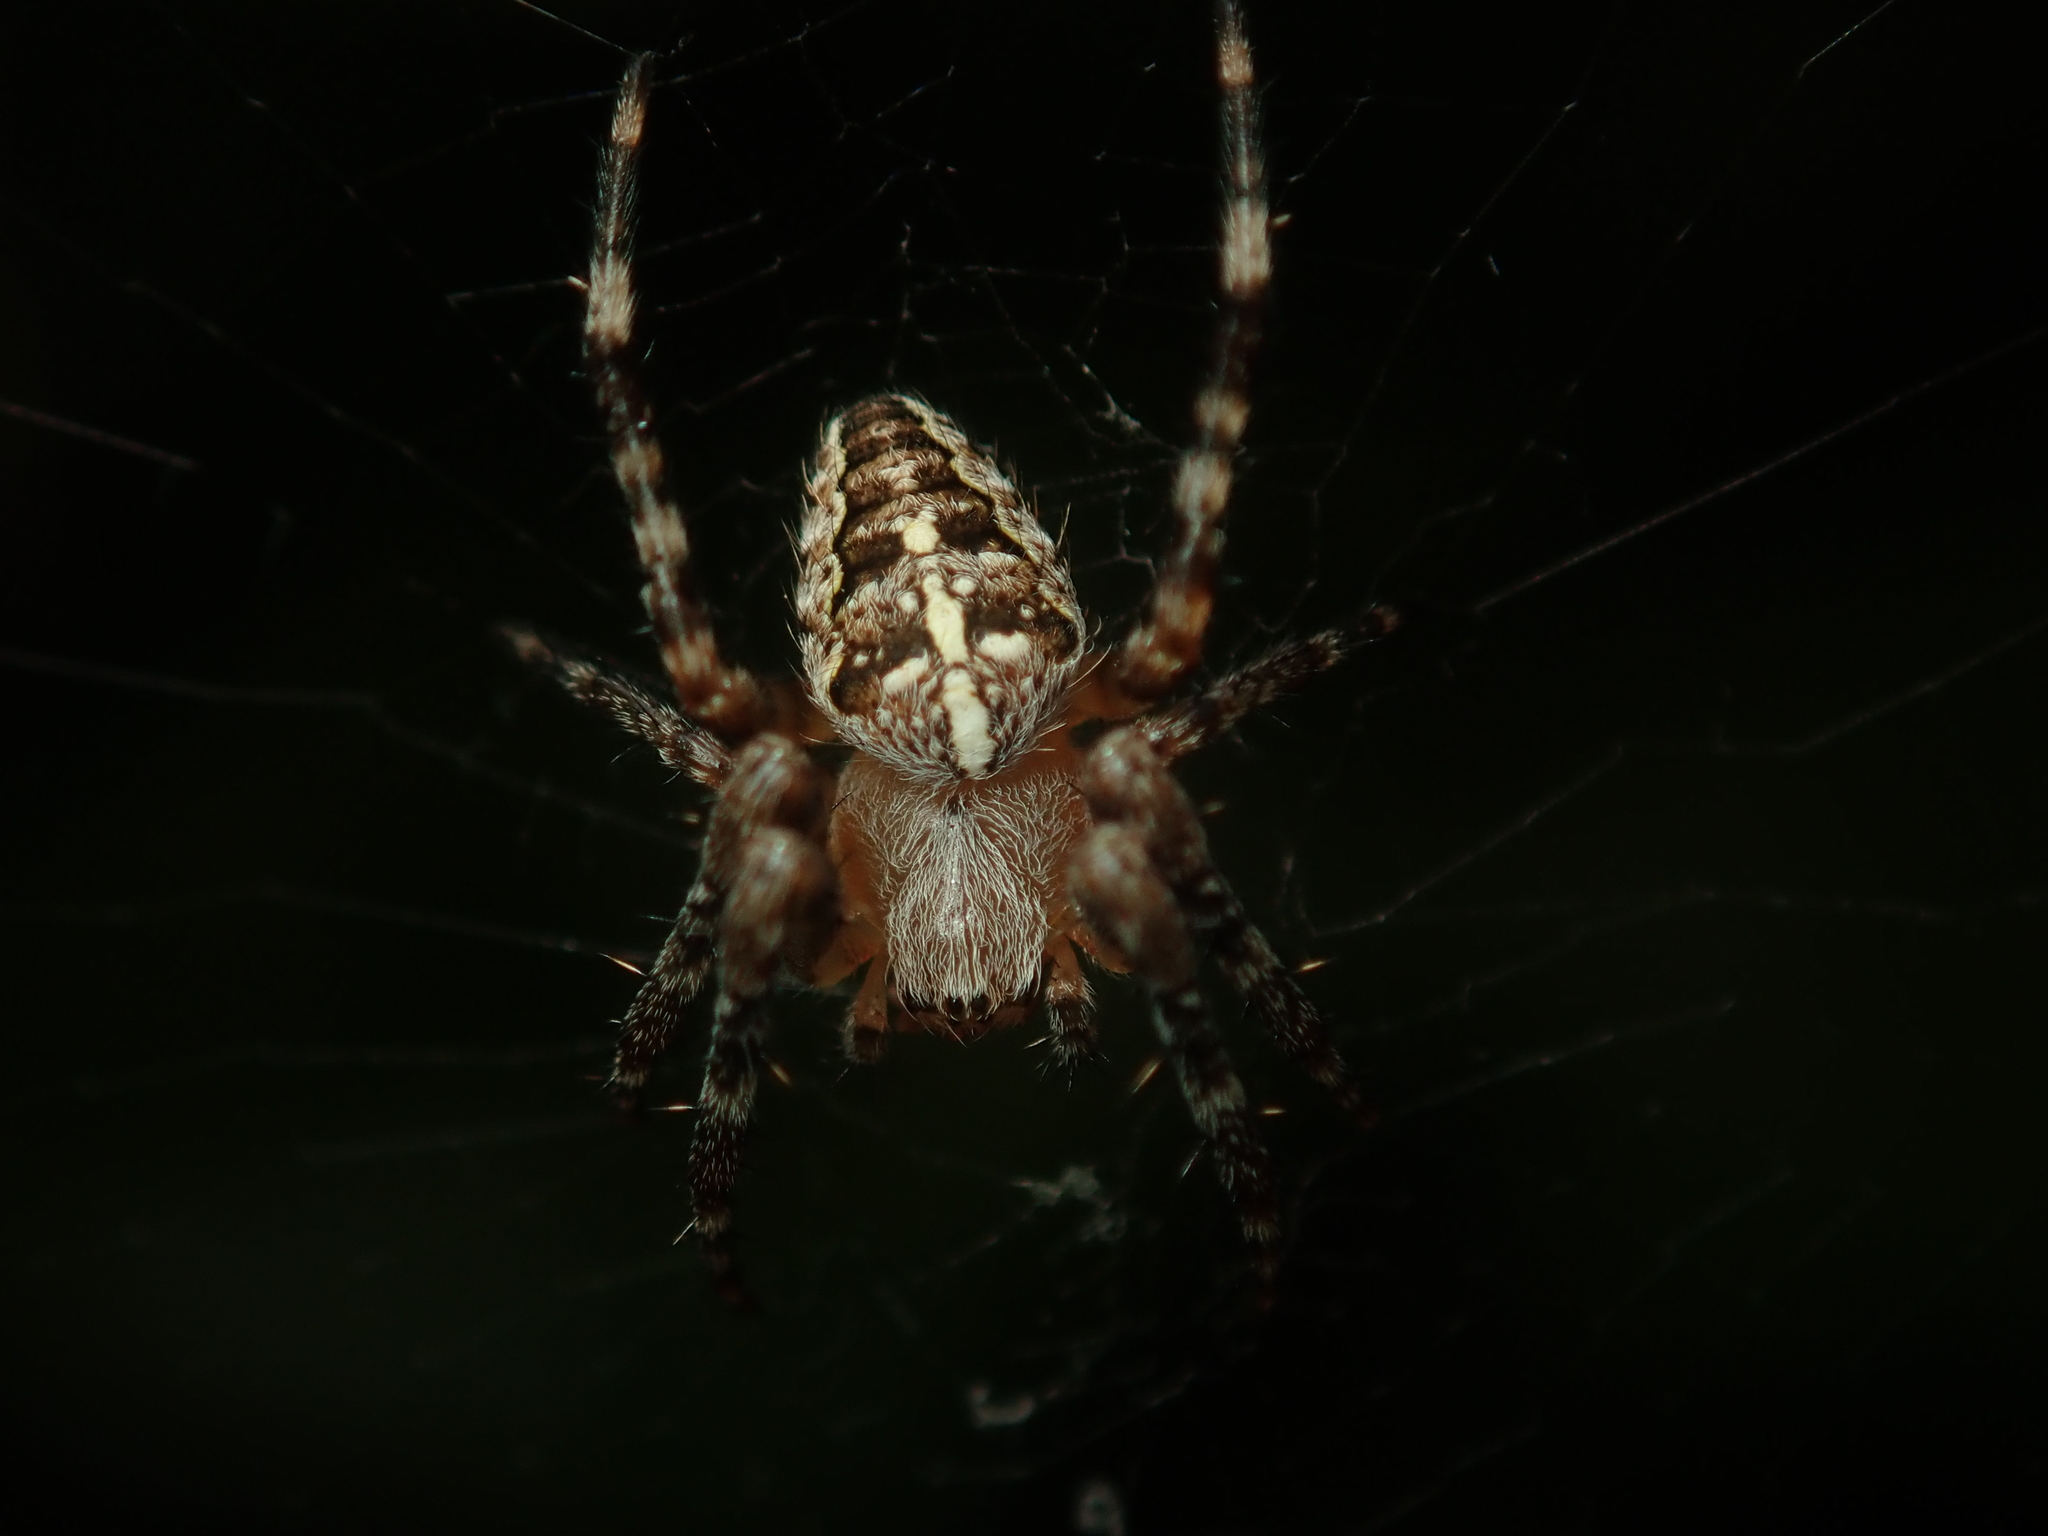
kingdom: Animalia
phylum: Arthropoda
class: Arachnida
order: Araneae
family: Araneidae
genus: Araneus
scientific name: Araneus diadematus
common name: Cross orbweaver
